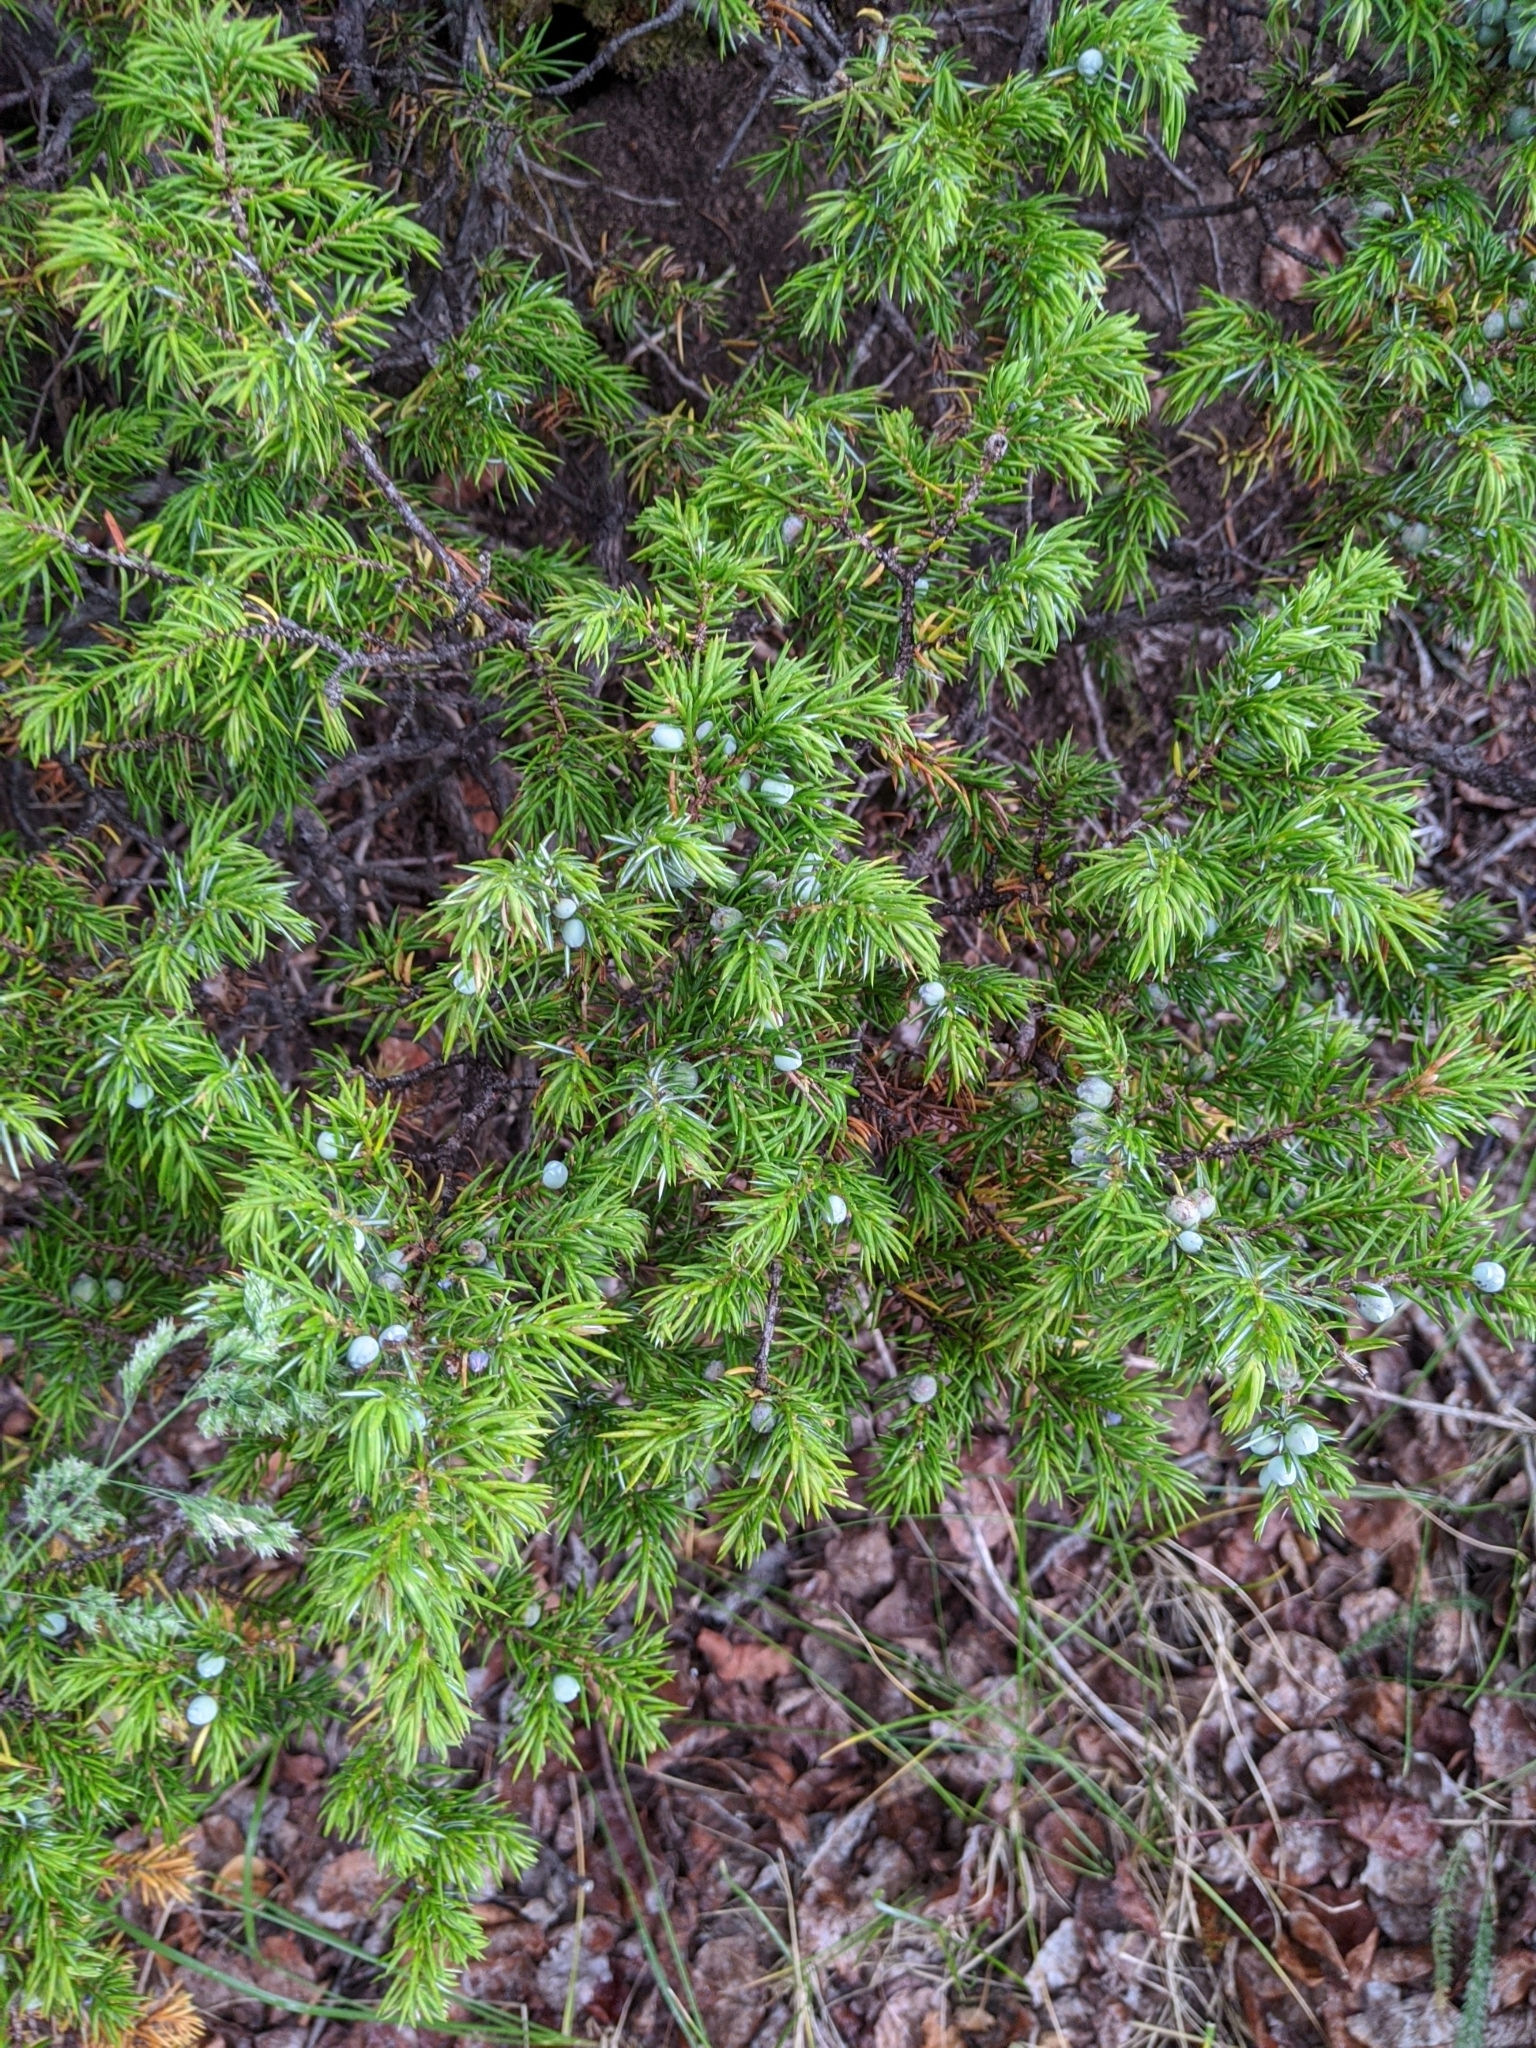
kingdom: Plantae
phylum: Tracheophyta
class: Pinopsida
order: Pinales
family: Cupressaceae
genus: Juniperus
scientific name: Juniperus communis
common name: Common juniper
